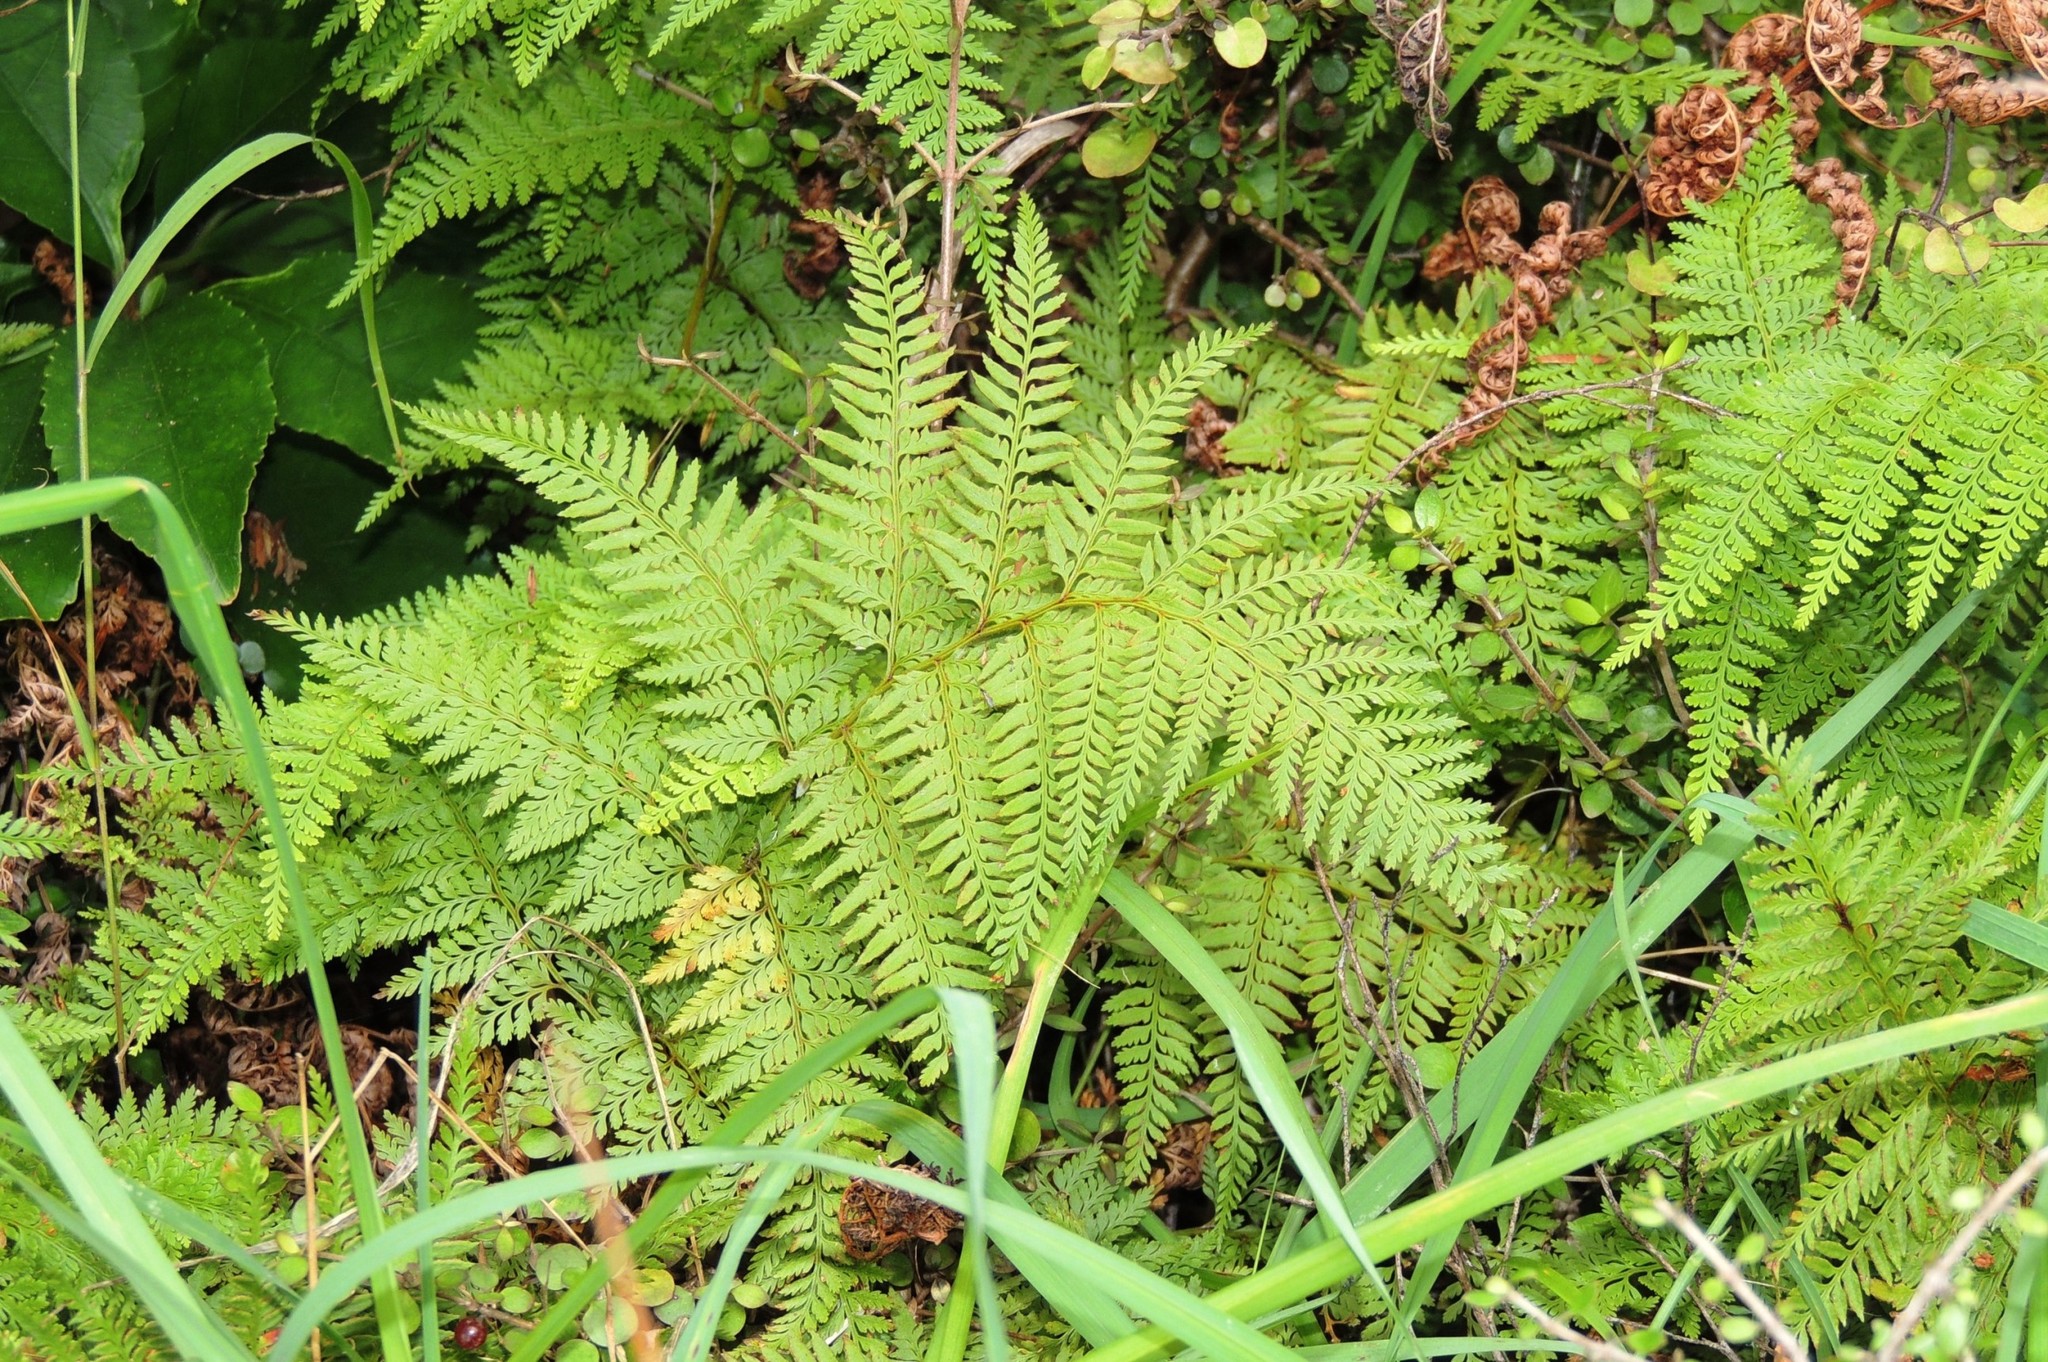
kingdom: Plantae
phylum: Tracheophyta
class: Polypodiopsida
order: Polypodiales
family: Dennstaedtiaceae
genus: Paesia
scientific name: Paesia scaberula
